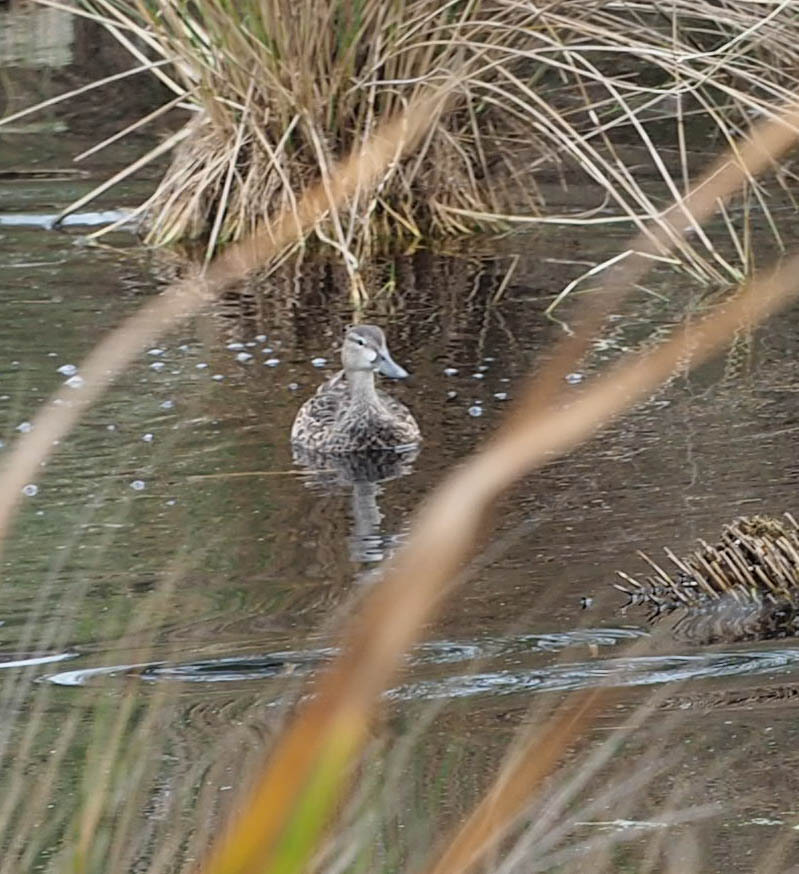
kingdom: Animalia
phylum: Chordata
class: Aves
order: Anseriformes
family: Anatidae
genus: Spatula
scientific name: Spatula discors
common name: Blue-winged teal
